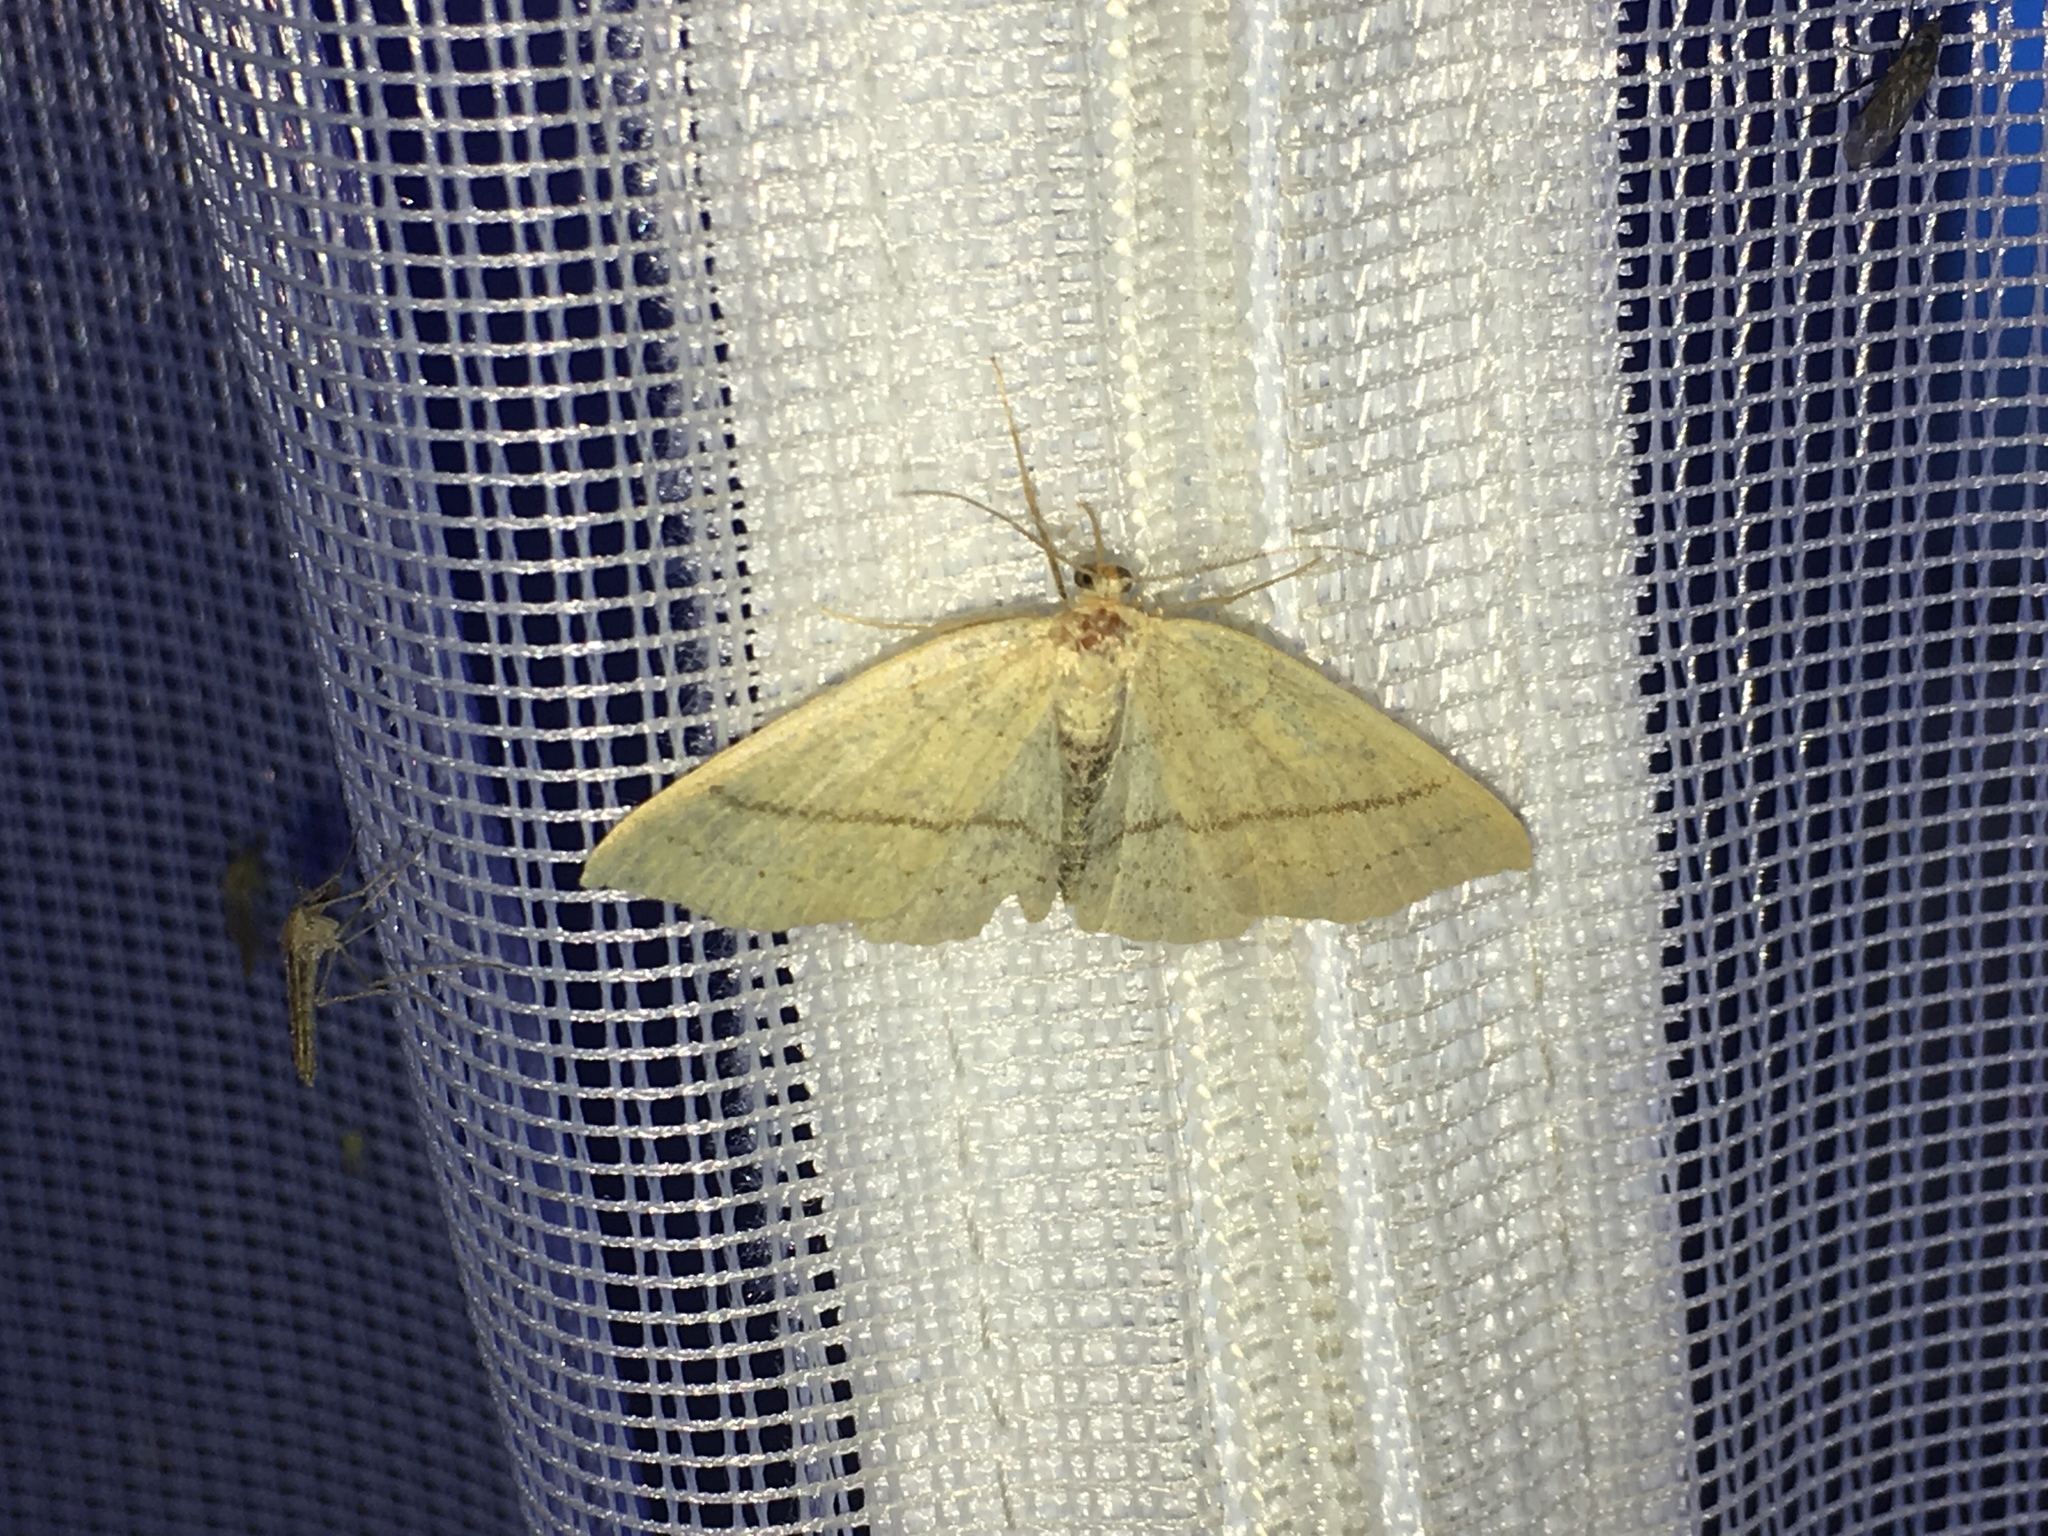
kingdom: Animalia
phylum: Arthropoda
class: Insecta
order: Lepidoptera
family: Geometridae
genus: Cyclophora
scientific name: Cyclophora linearia
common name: Clay triple-lines
